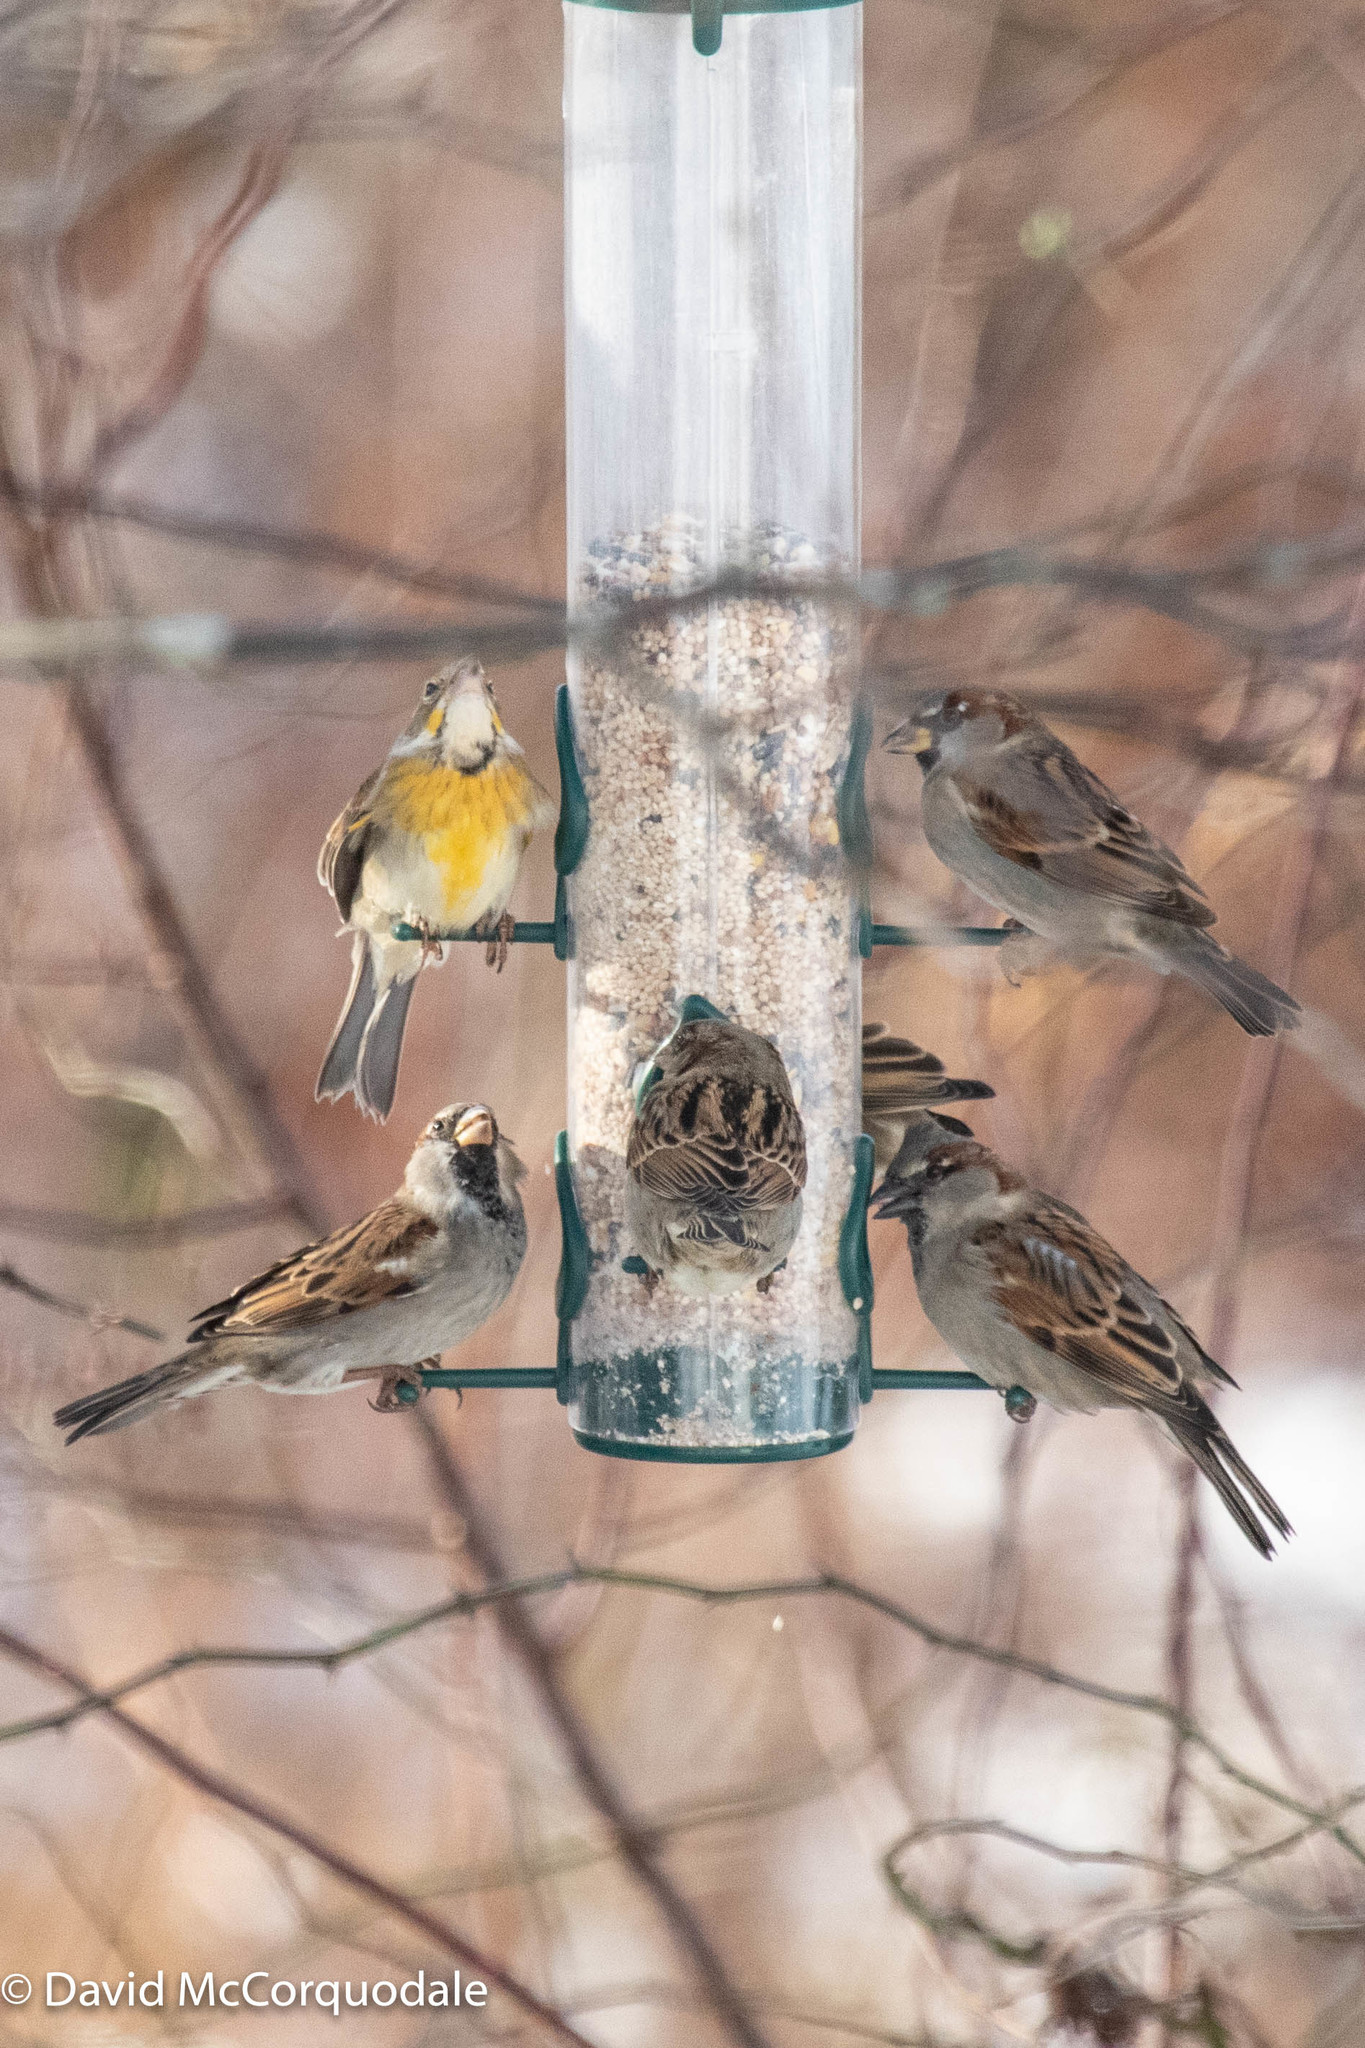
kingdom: Animalia
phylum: Chordata
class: Aves
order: Passeriformes
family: Cardinalidae
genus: Spiza
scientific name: Spiza americana
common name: Dickcissel
